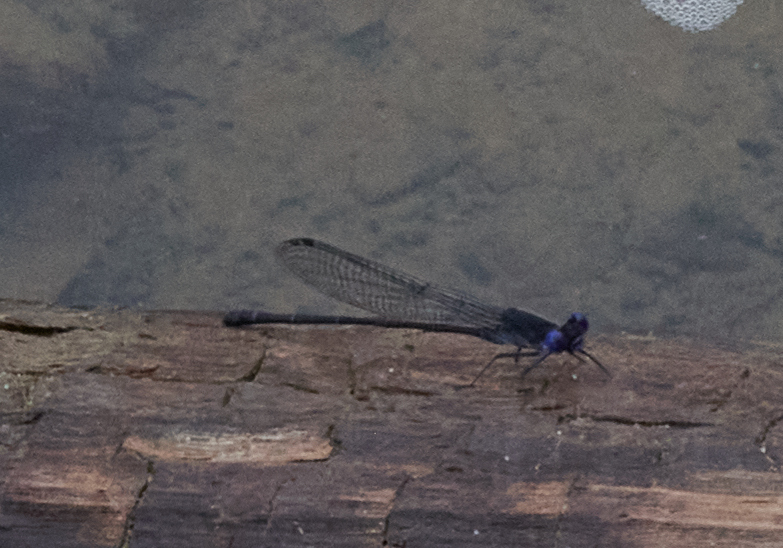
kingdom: Animalia
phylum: Arthropoda
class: Insecta
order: Odonata
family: Coenagrionidae
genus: Argia
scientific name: Argia translata
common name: Dusky dancer
